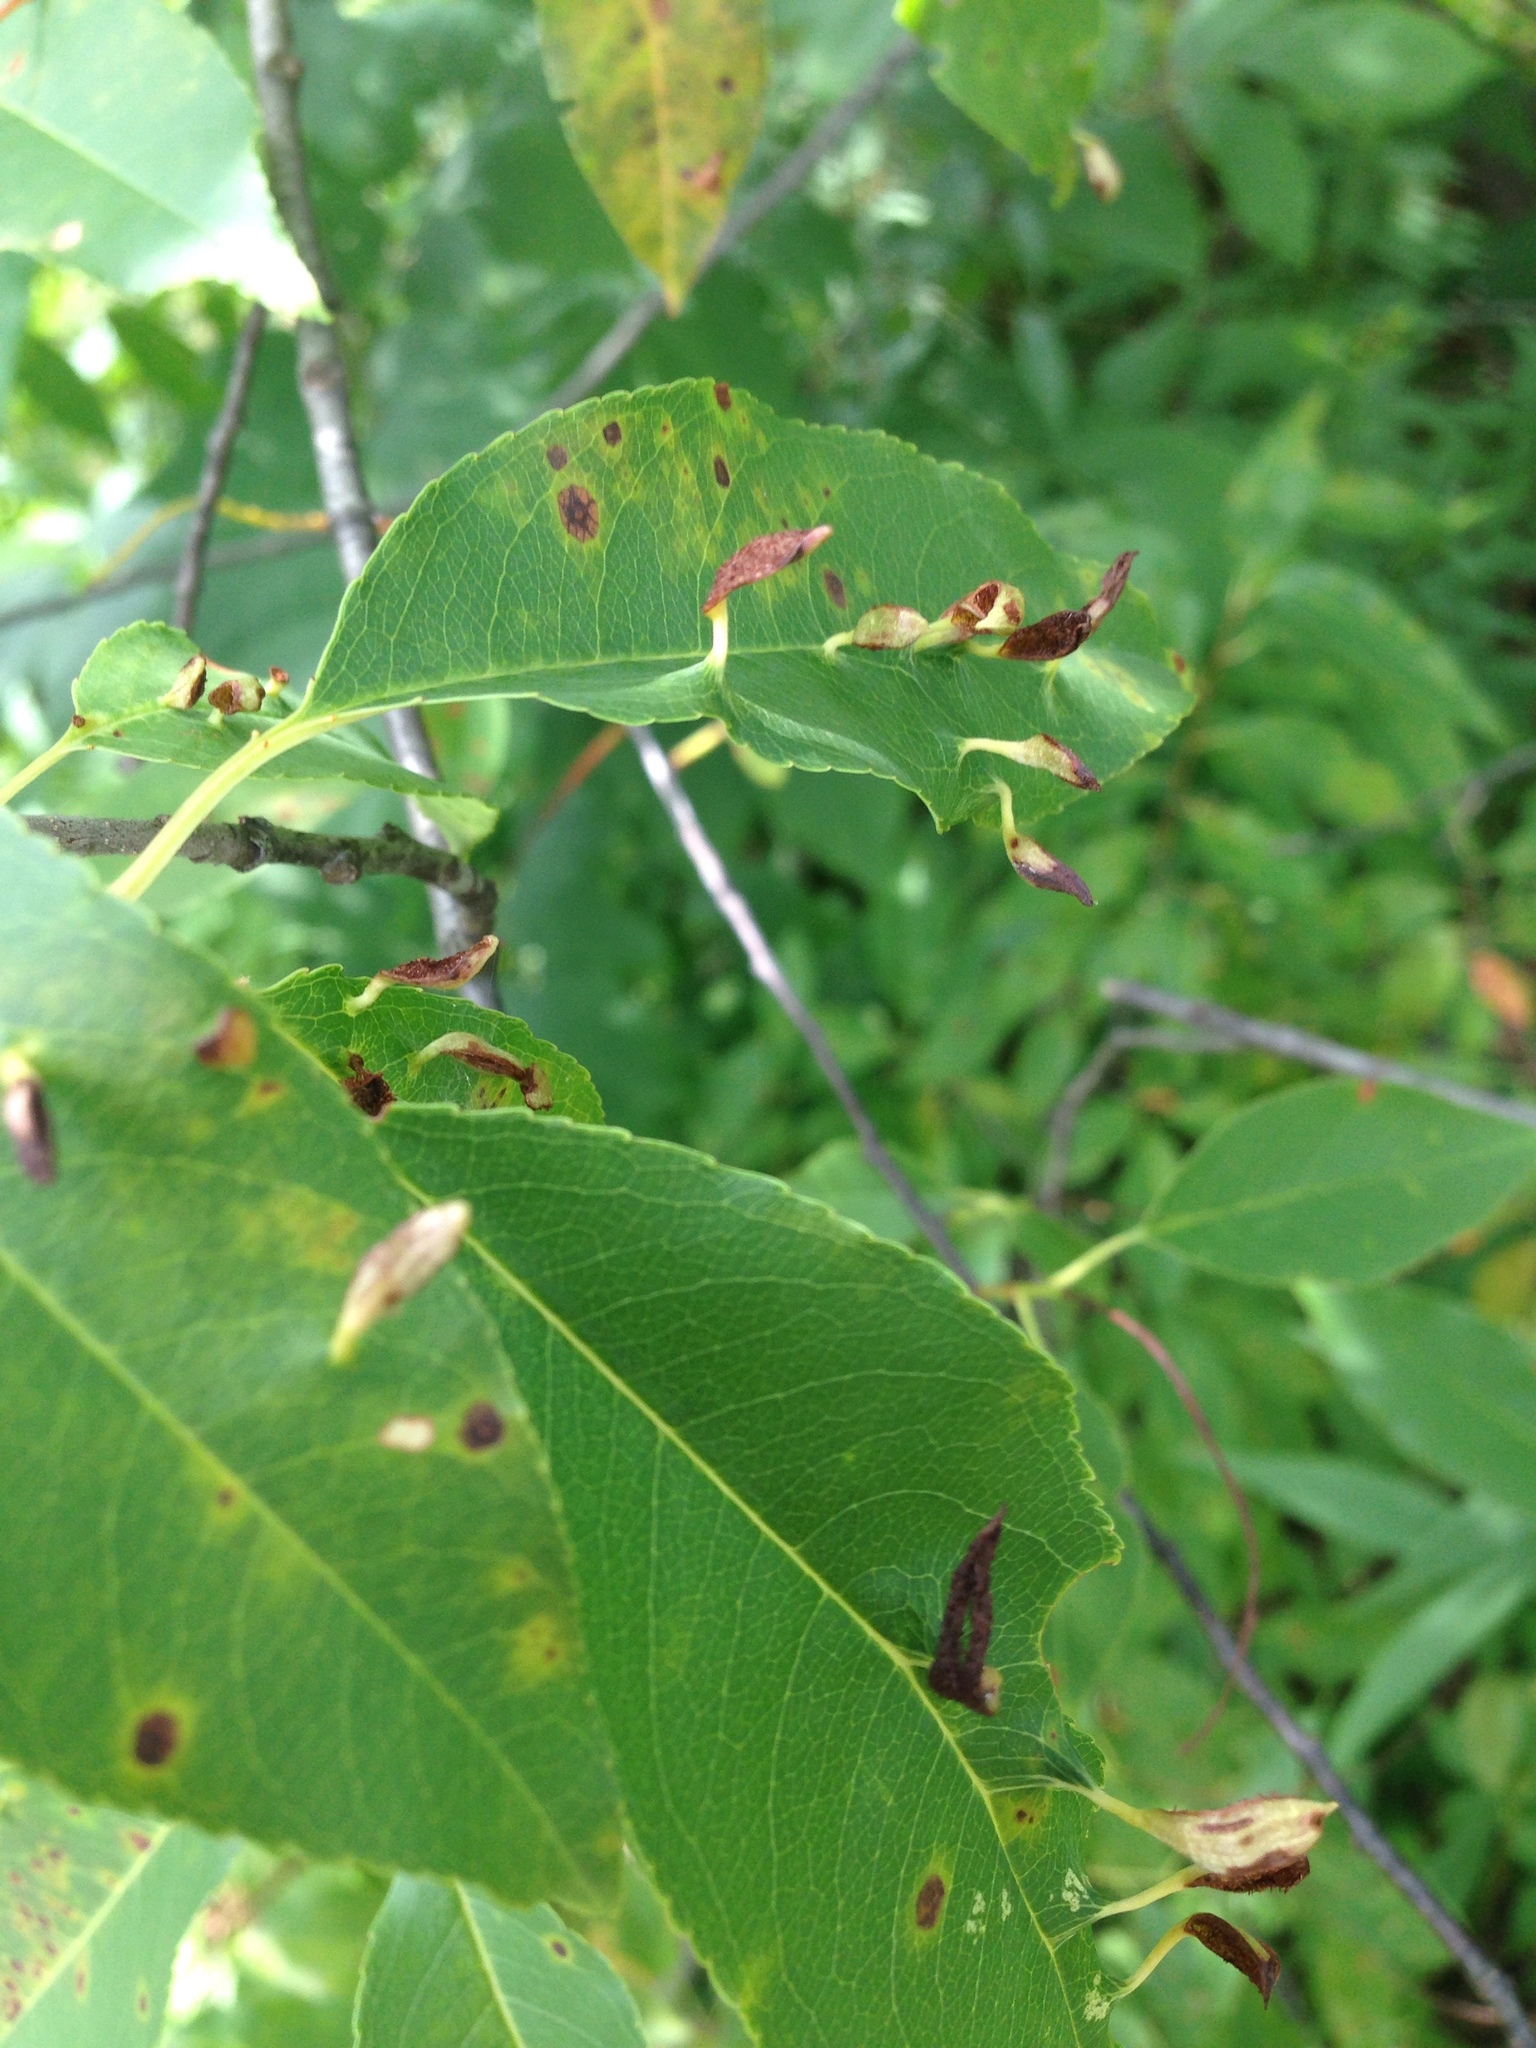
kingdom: Animalia
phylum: Arthropoda
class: Arachnida
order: Trombidiformes
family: Eriophyidae
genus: Eriophyes
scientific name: Eriophyes
